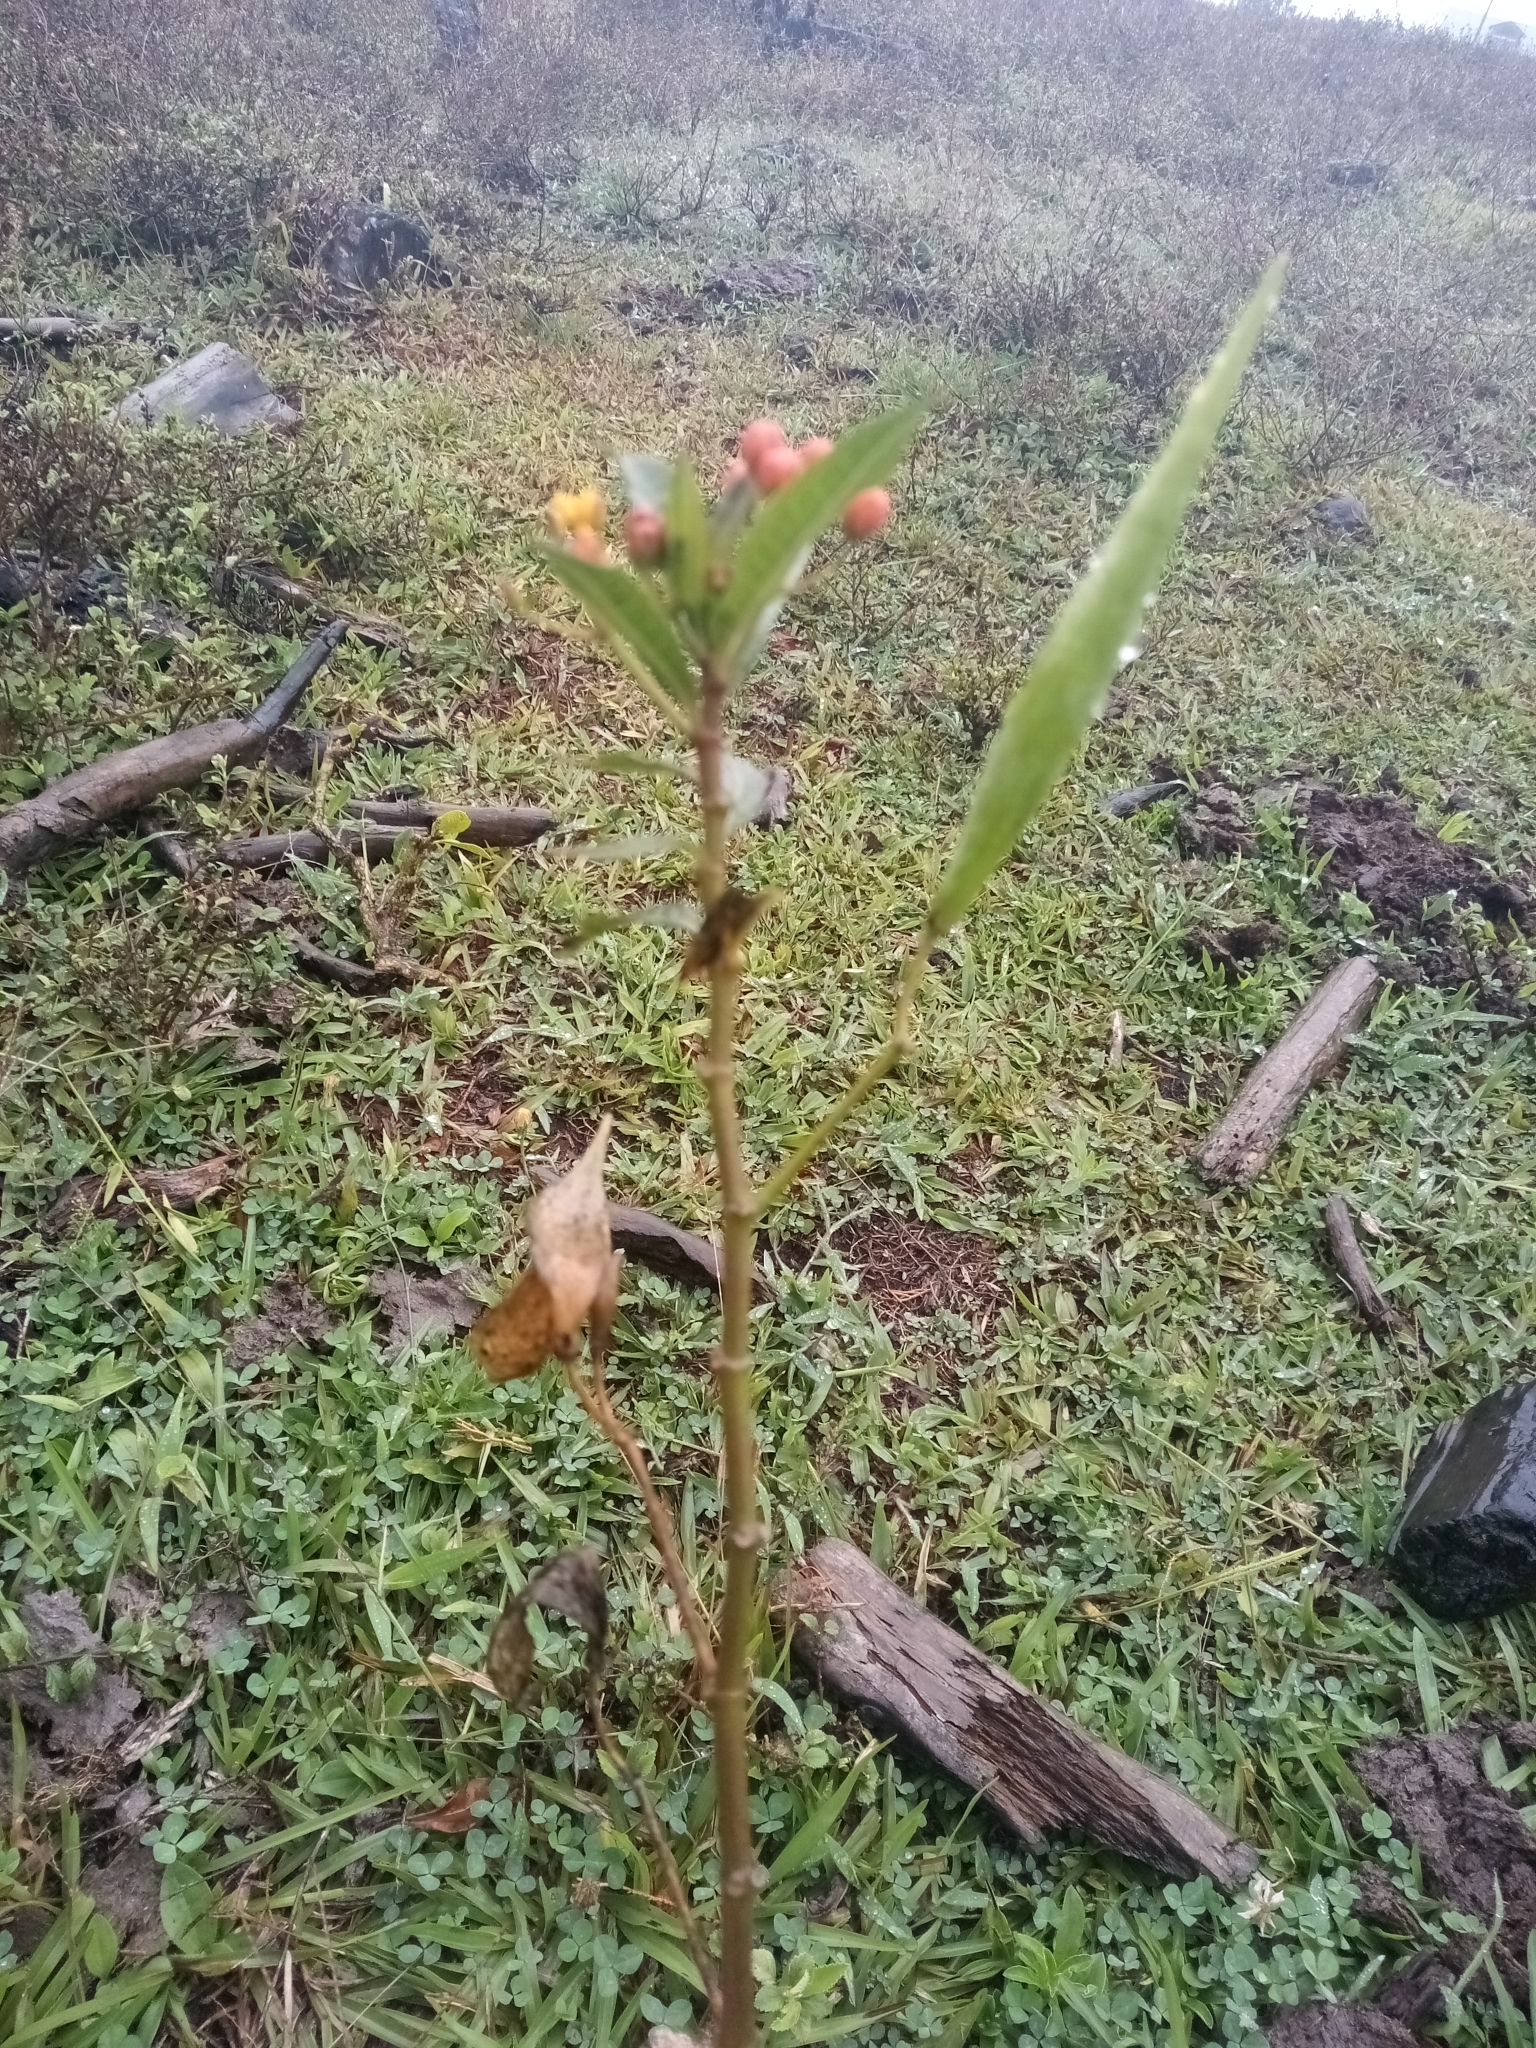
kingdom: Plantae
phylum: Tracheophyta
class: Magnoliopsida
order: Gentianales
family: Apocynaceae
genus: Asclepias
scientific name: Asclepias curassavica
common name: Bloodflower
